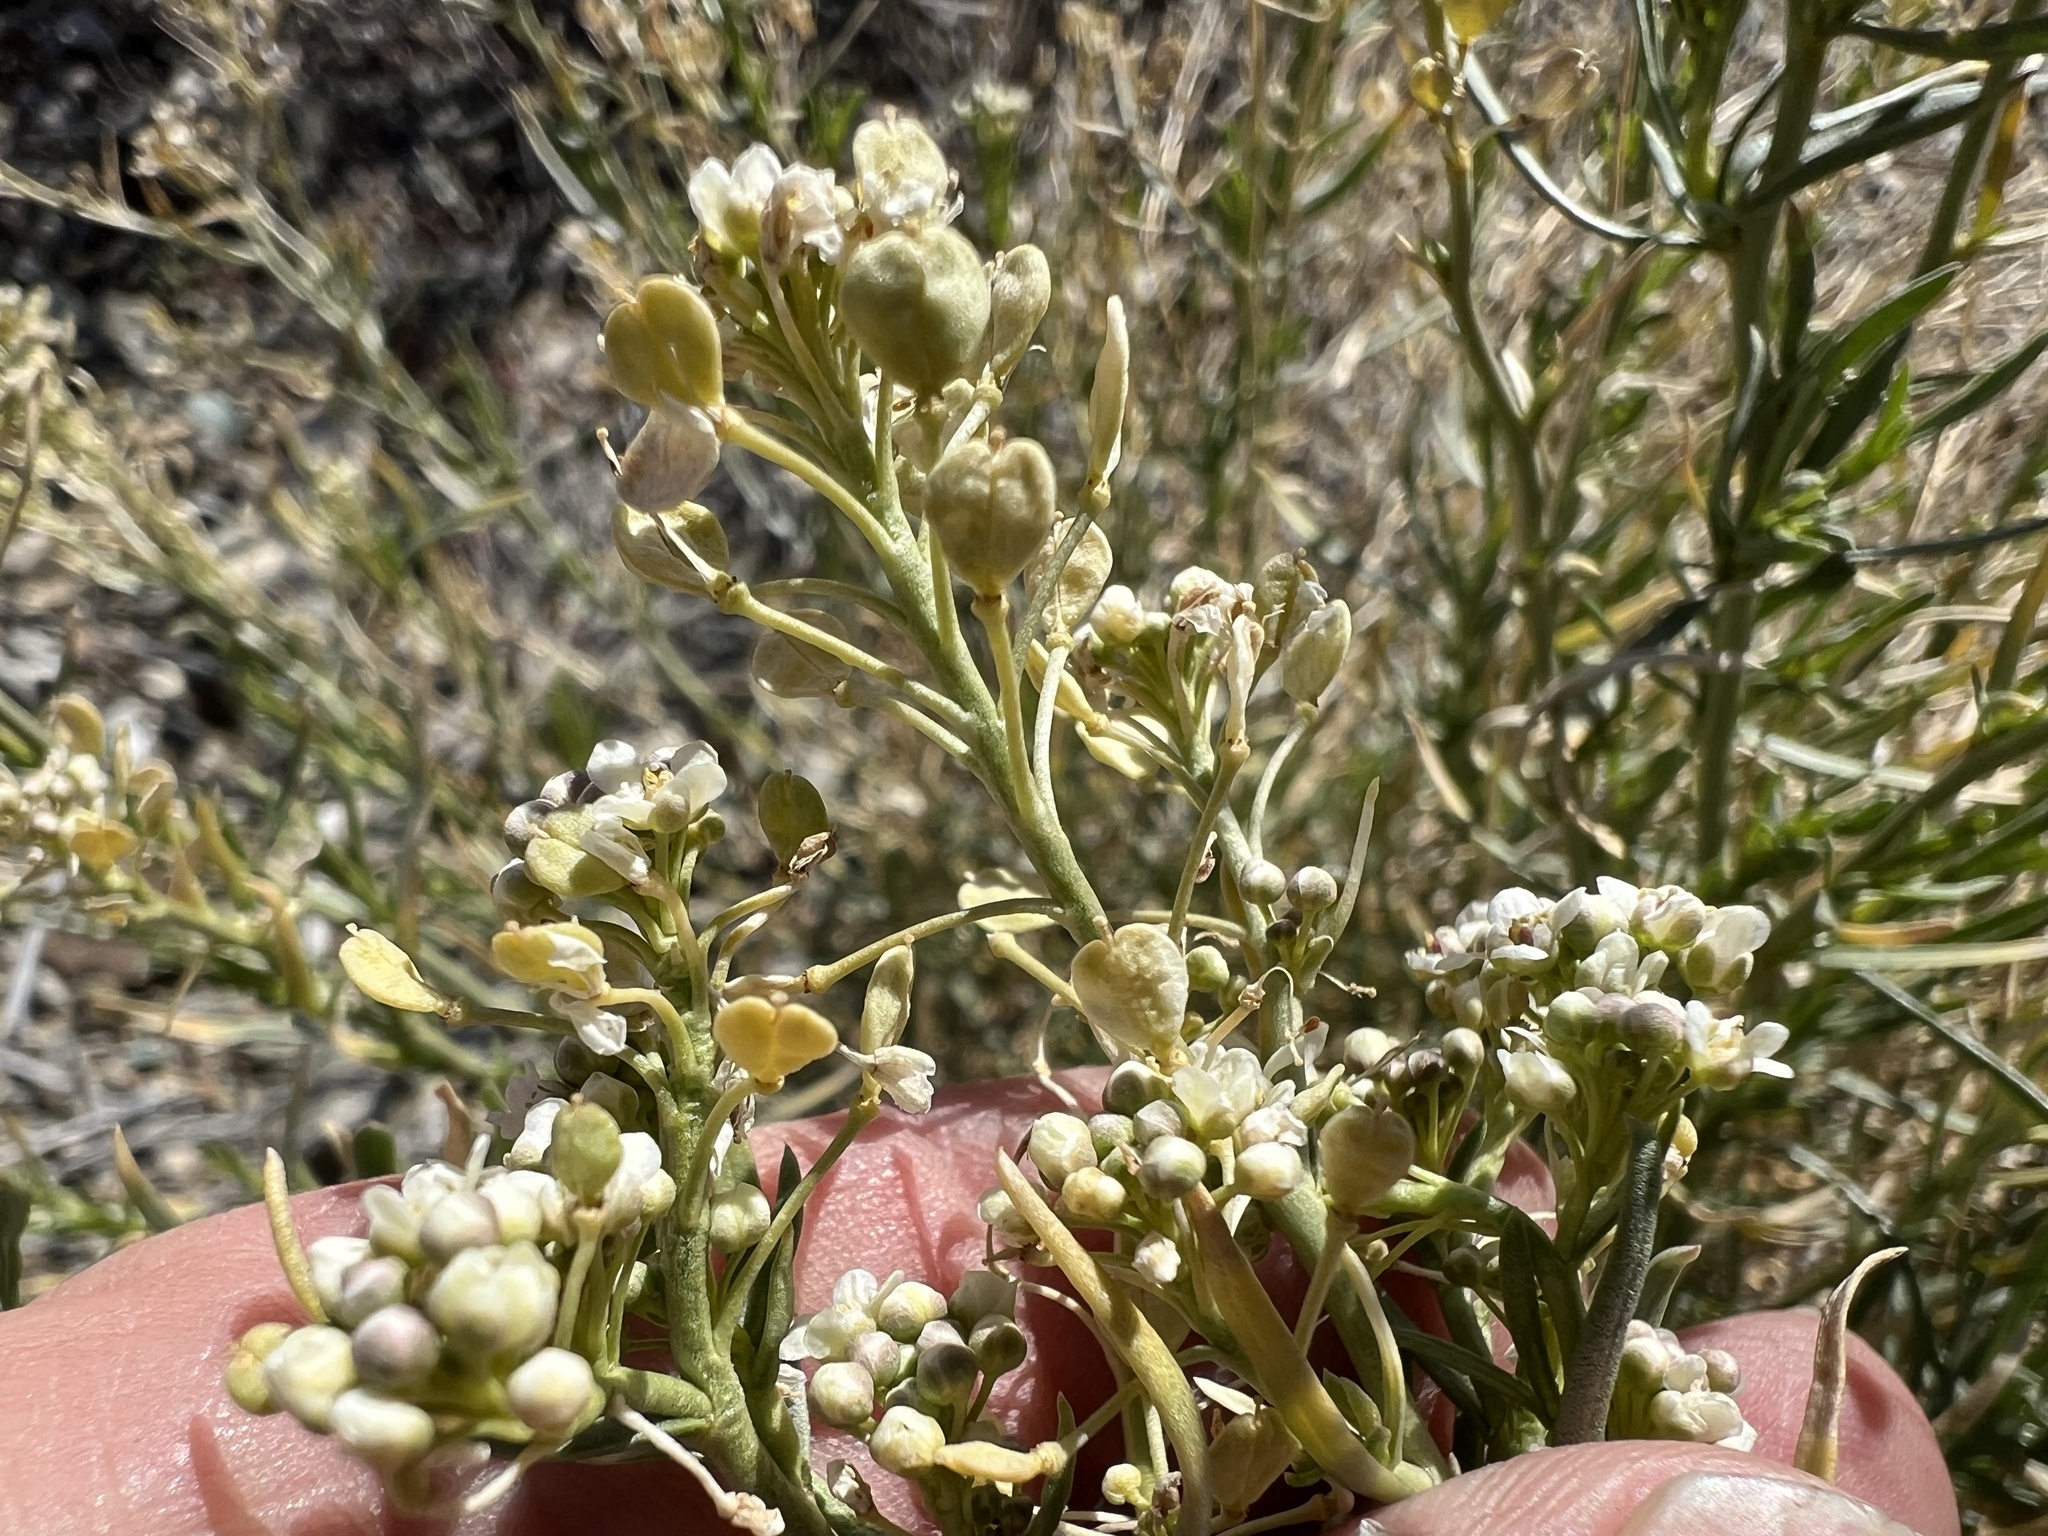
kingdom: Plantae
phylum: Tracheophyta
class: Magnoliopsida
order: Brassicales
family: Brassicaceae
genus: Lepidium
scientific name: Lepidium fremontii
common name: Fremont's pepperwort
